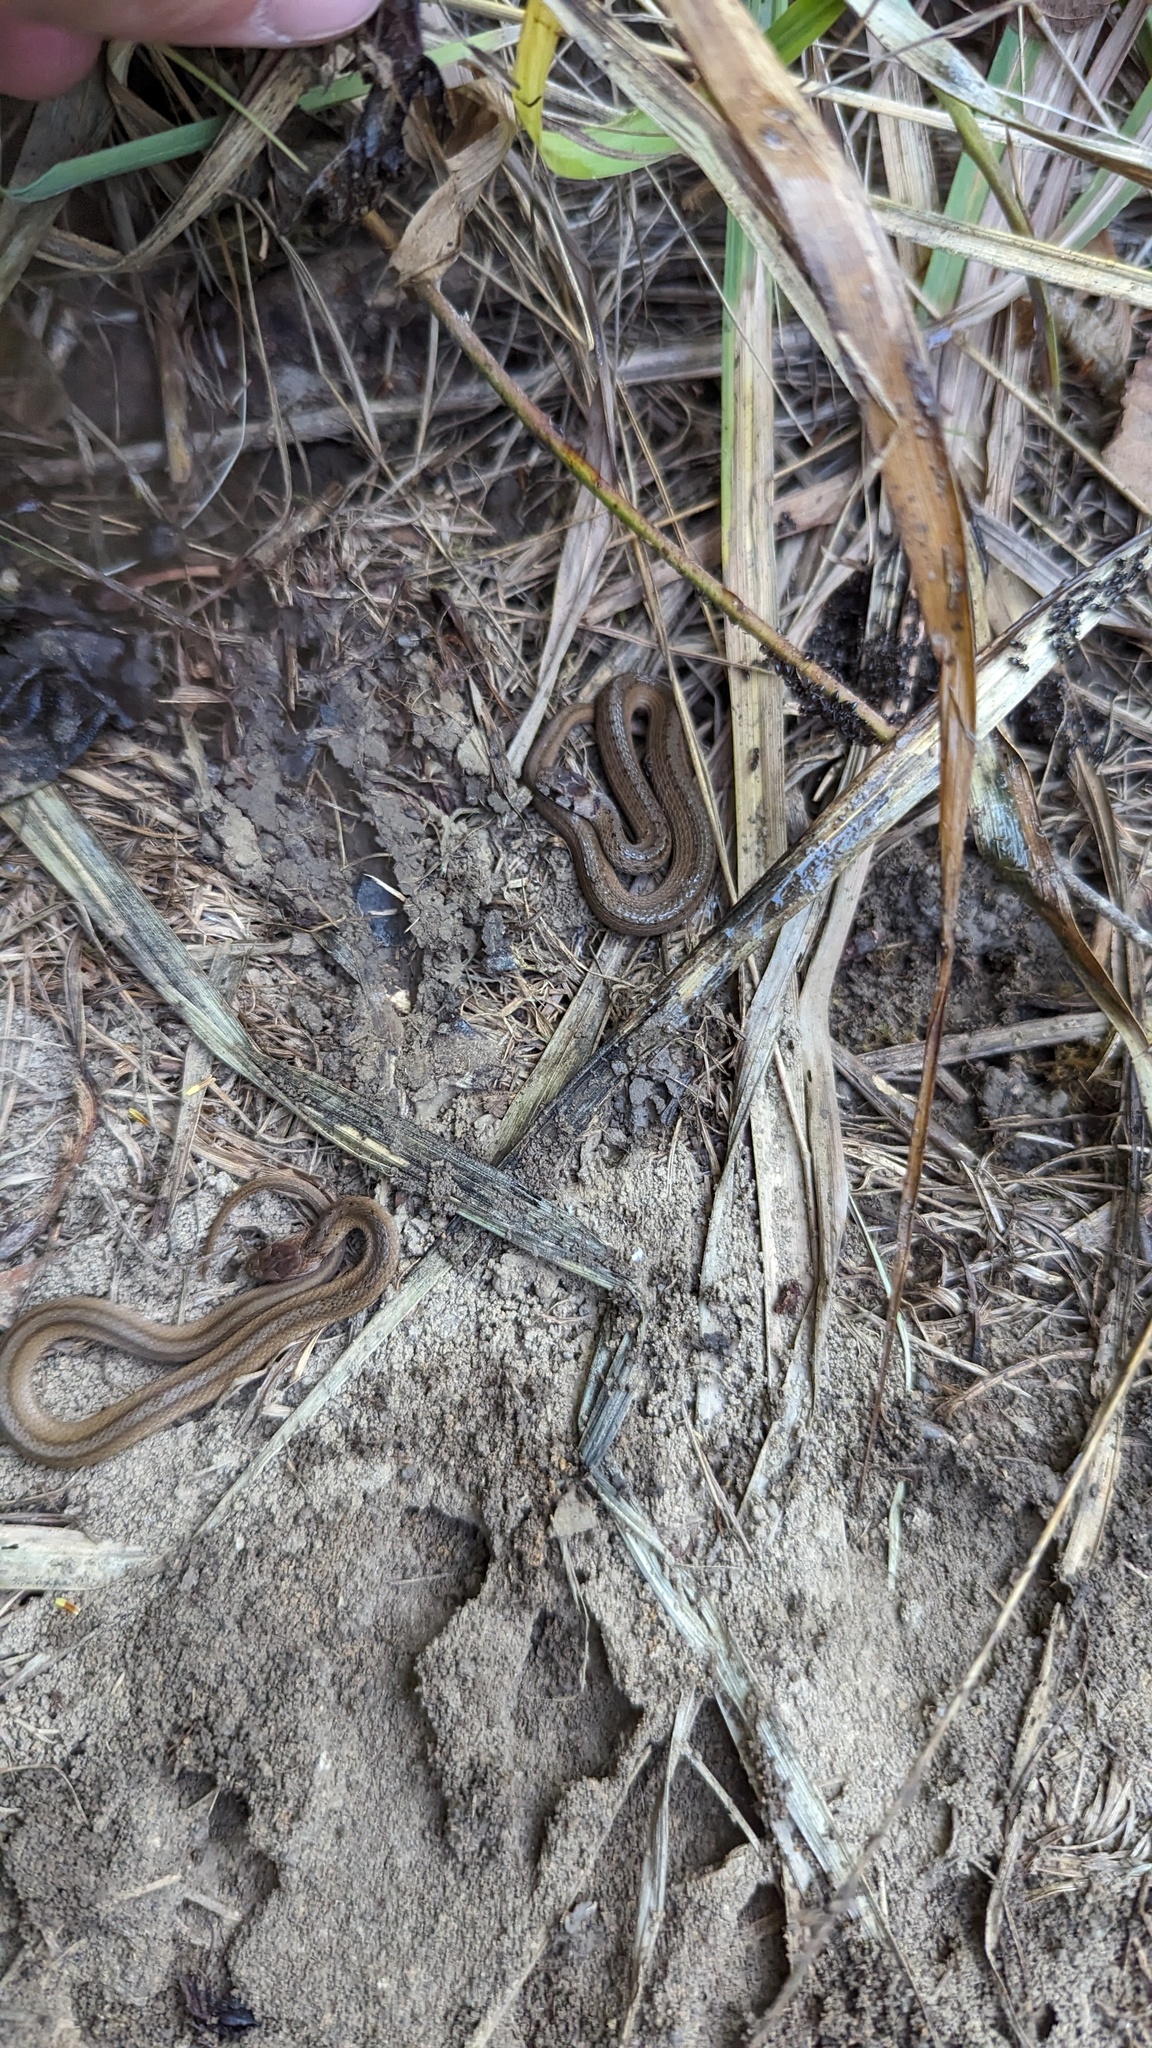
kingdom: Animalia
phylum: Chordata
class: Squamata
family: Colubridae
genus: Storeria
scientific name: Storeria dekayi
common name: (dekay’s) brown snake
